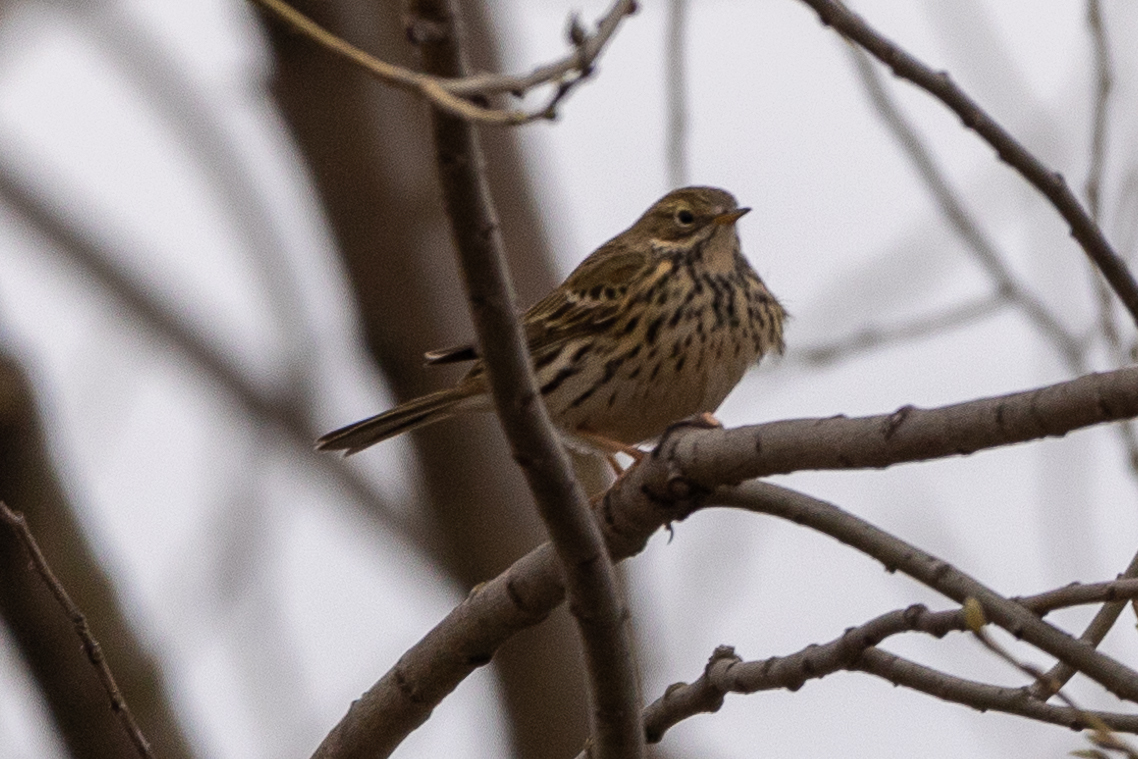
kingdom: Animalia
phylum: Chordata
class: Aves
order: Passeriformes
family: Motacillidae
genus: Anthus
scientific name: Anthus pratensis
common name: Meadow pipit
